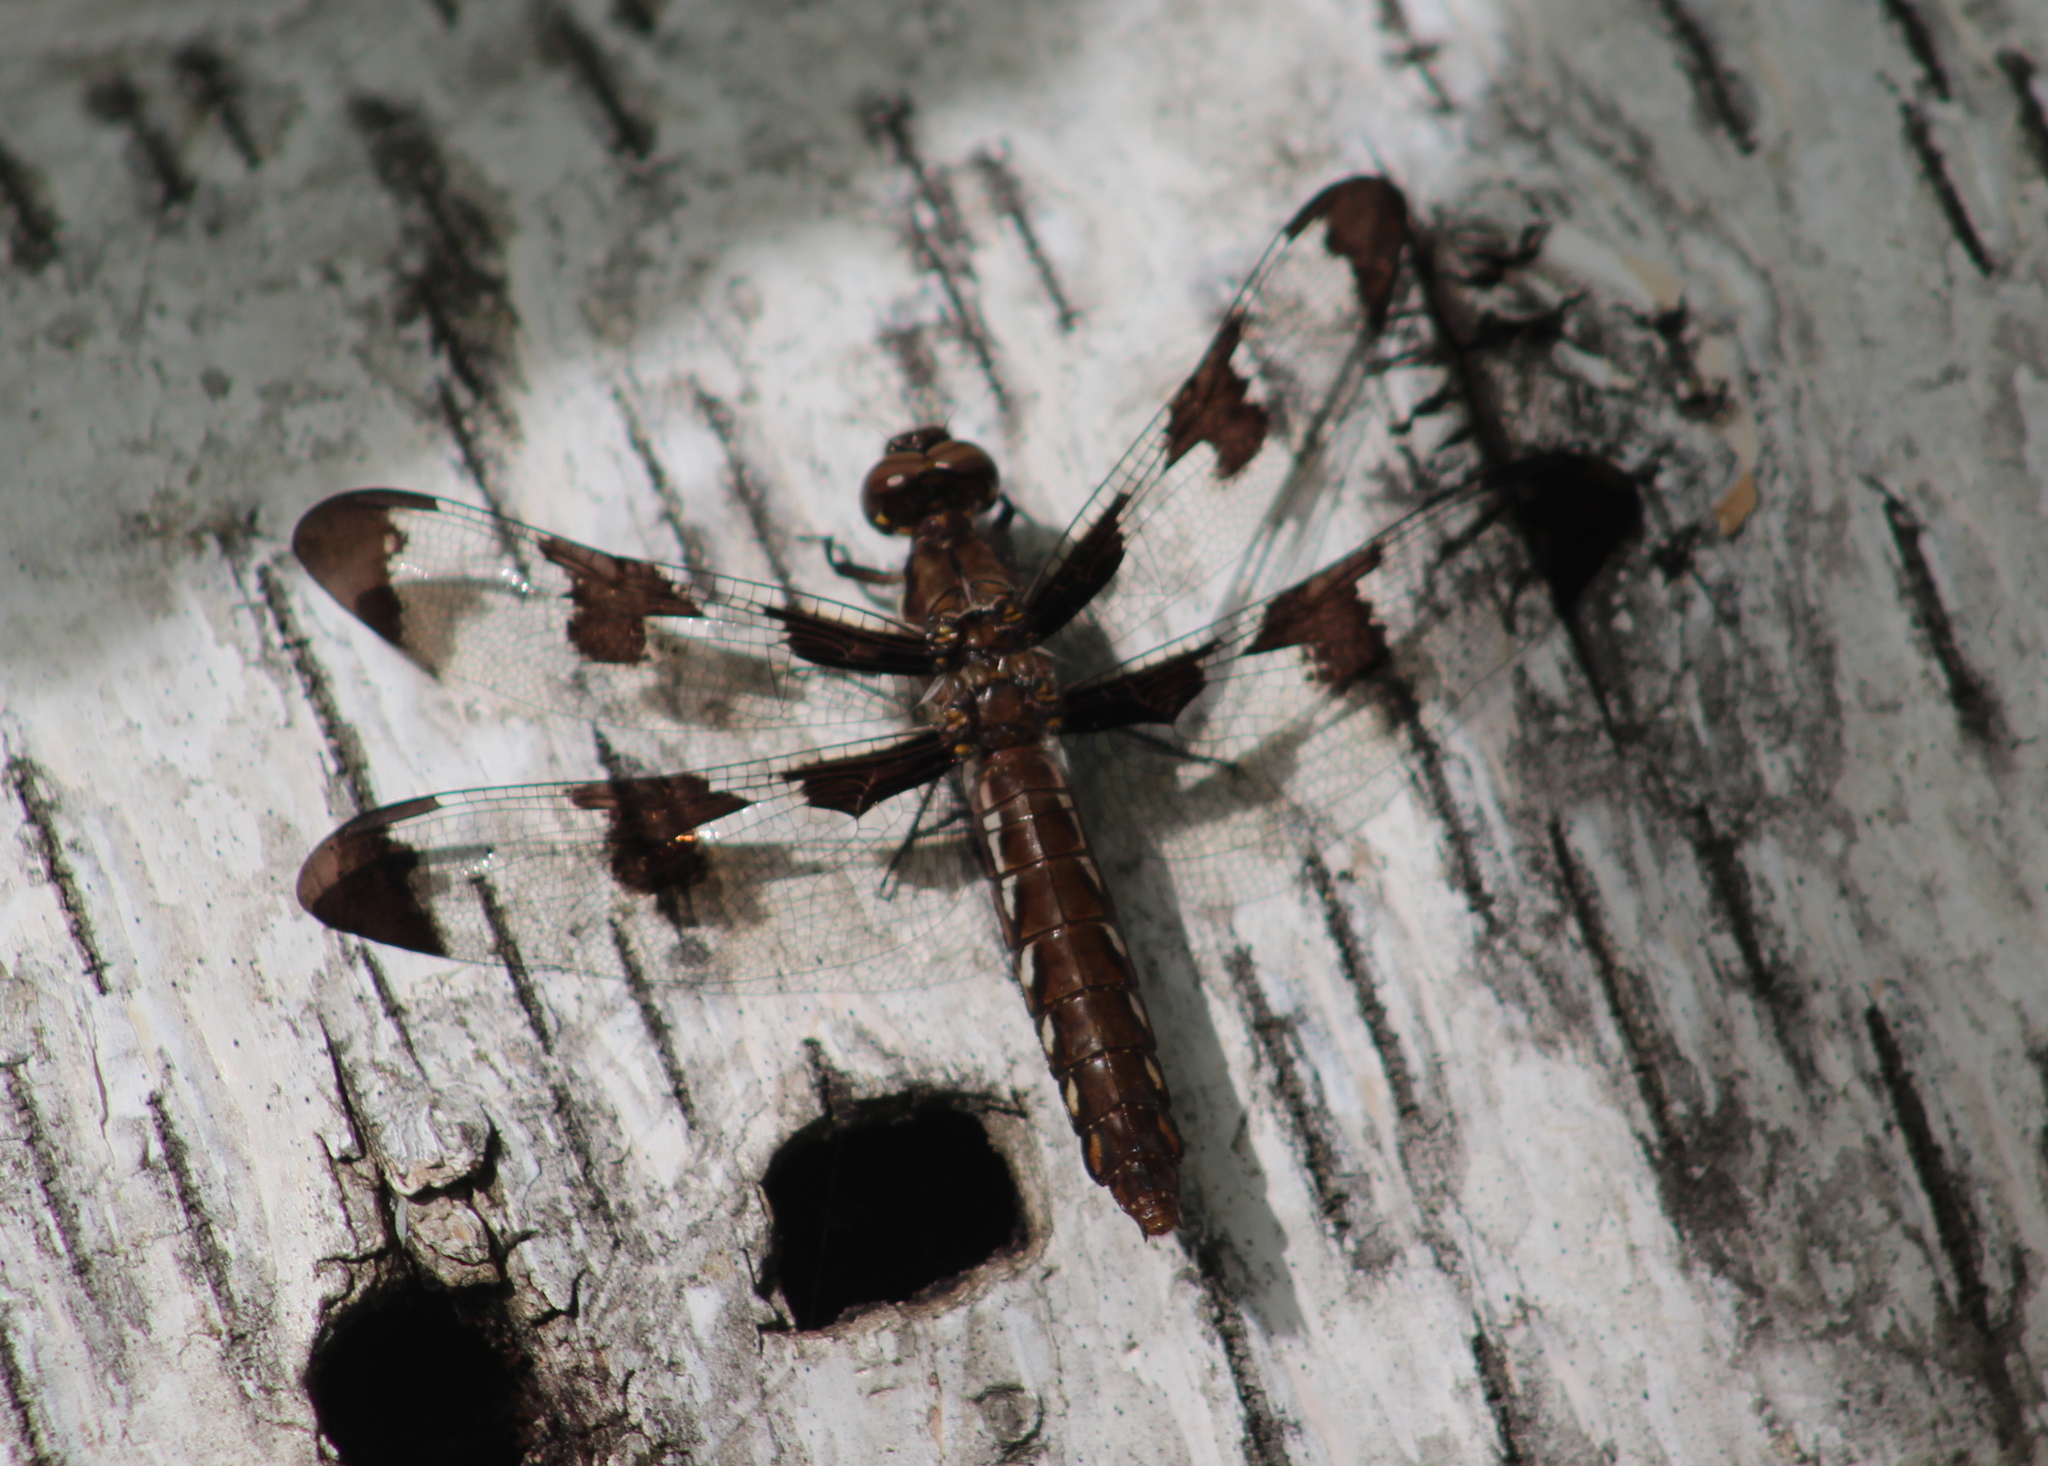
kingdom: Animalia
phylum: Arthropoda
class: Insecta
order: Odonata
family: Libellulidae
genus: Plathemis
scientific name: Plathemis lydia
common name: Common whitetail
